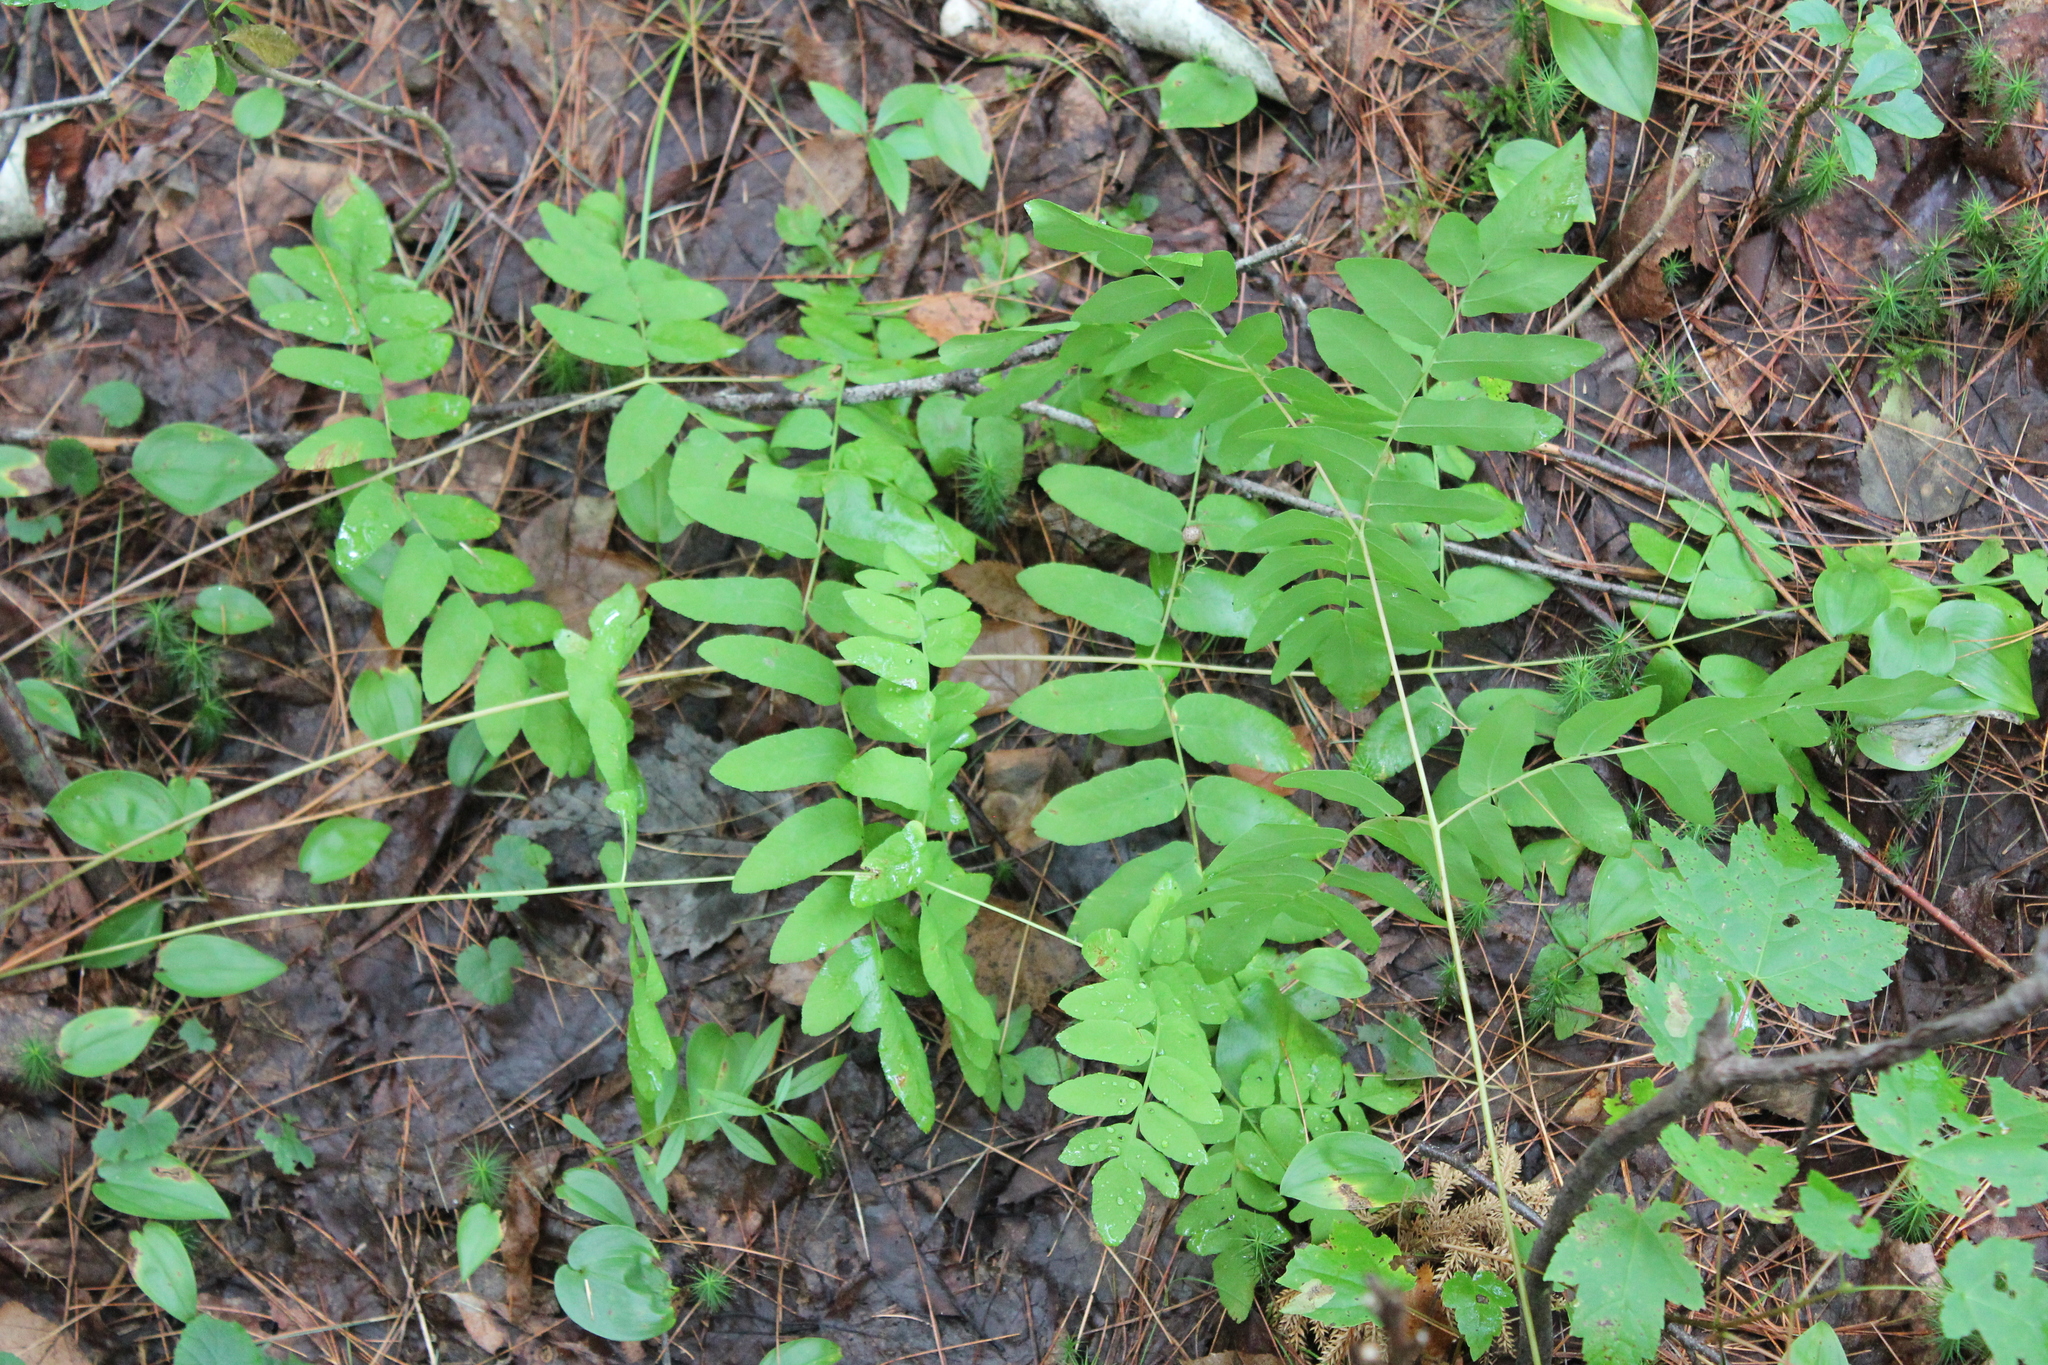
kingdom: Plantae
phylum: Tracheophyta
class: Polypodiopsida
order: Osmundales
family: Osmundaceae
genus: Osmunda
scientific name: Osmunda spectabilis
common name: American royal fern
